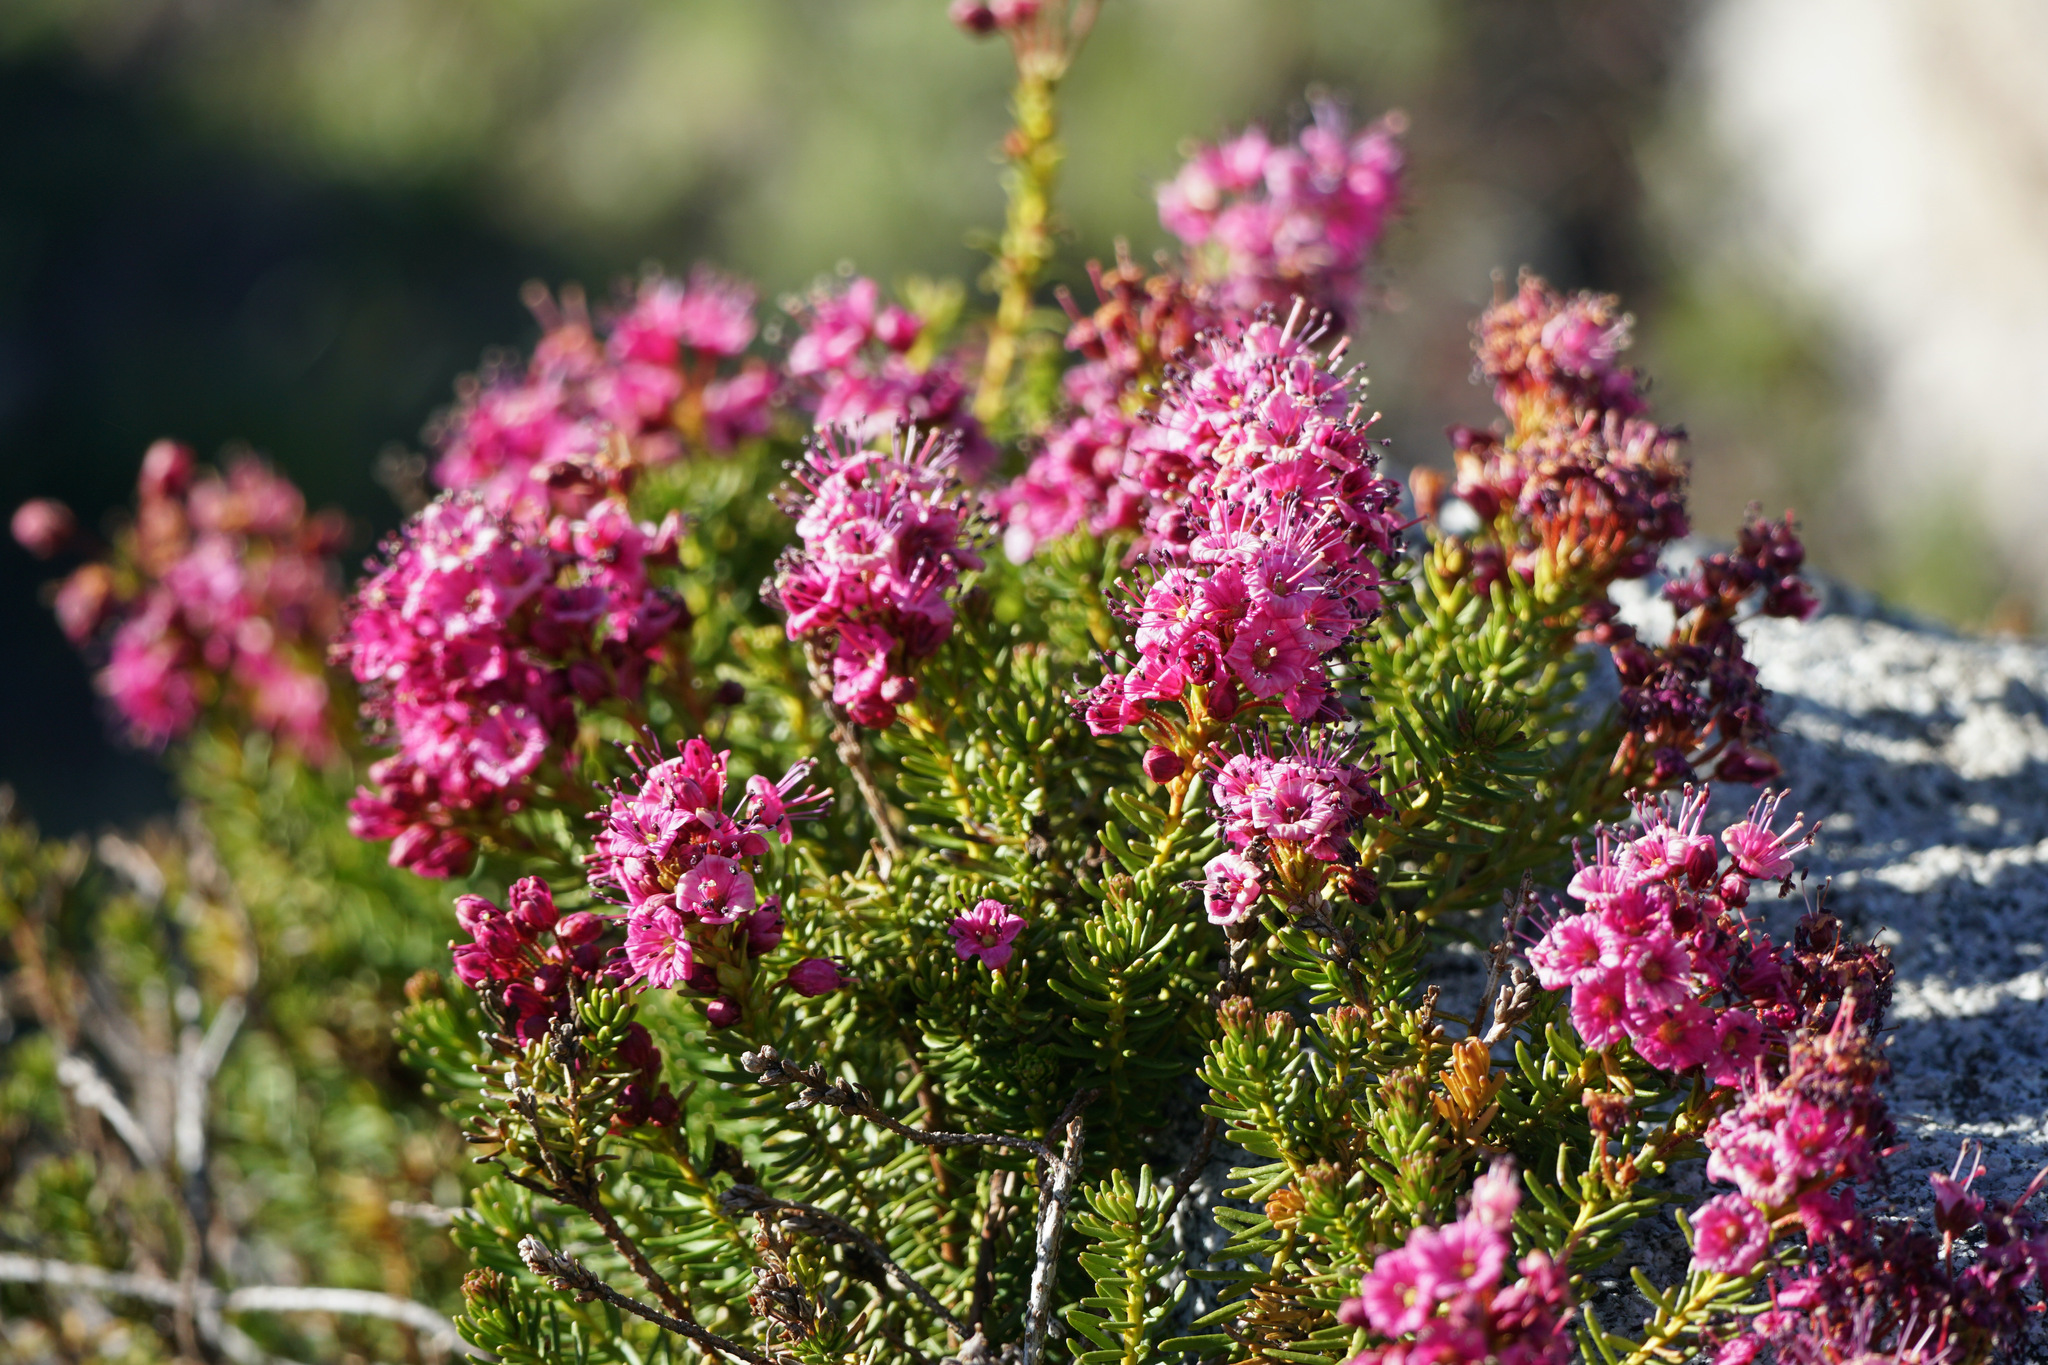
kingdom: Plantae
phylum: Tracheophyta
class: Magnoliopsida
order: Ericales
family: Ericaceae
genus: Phyllodoce
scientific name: Phyllodoce breweri
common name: Brewer's mountain-heather
